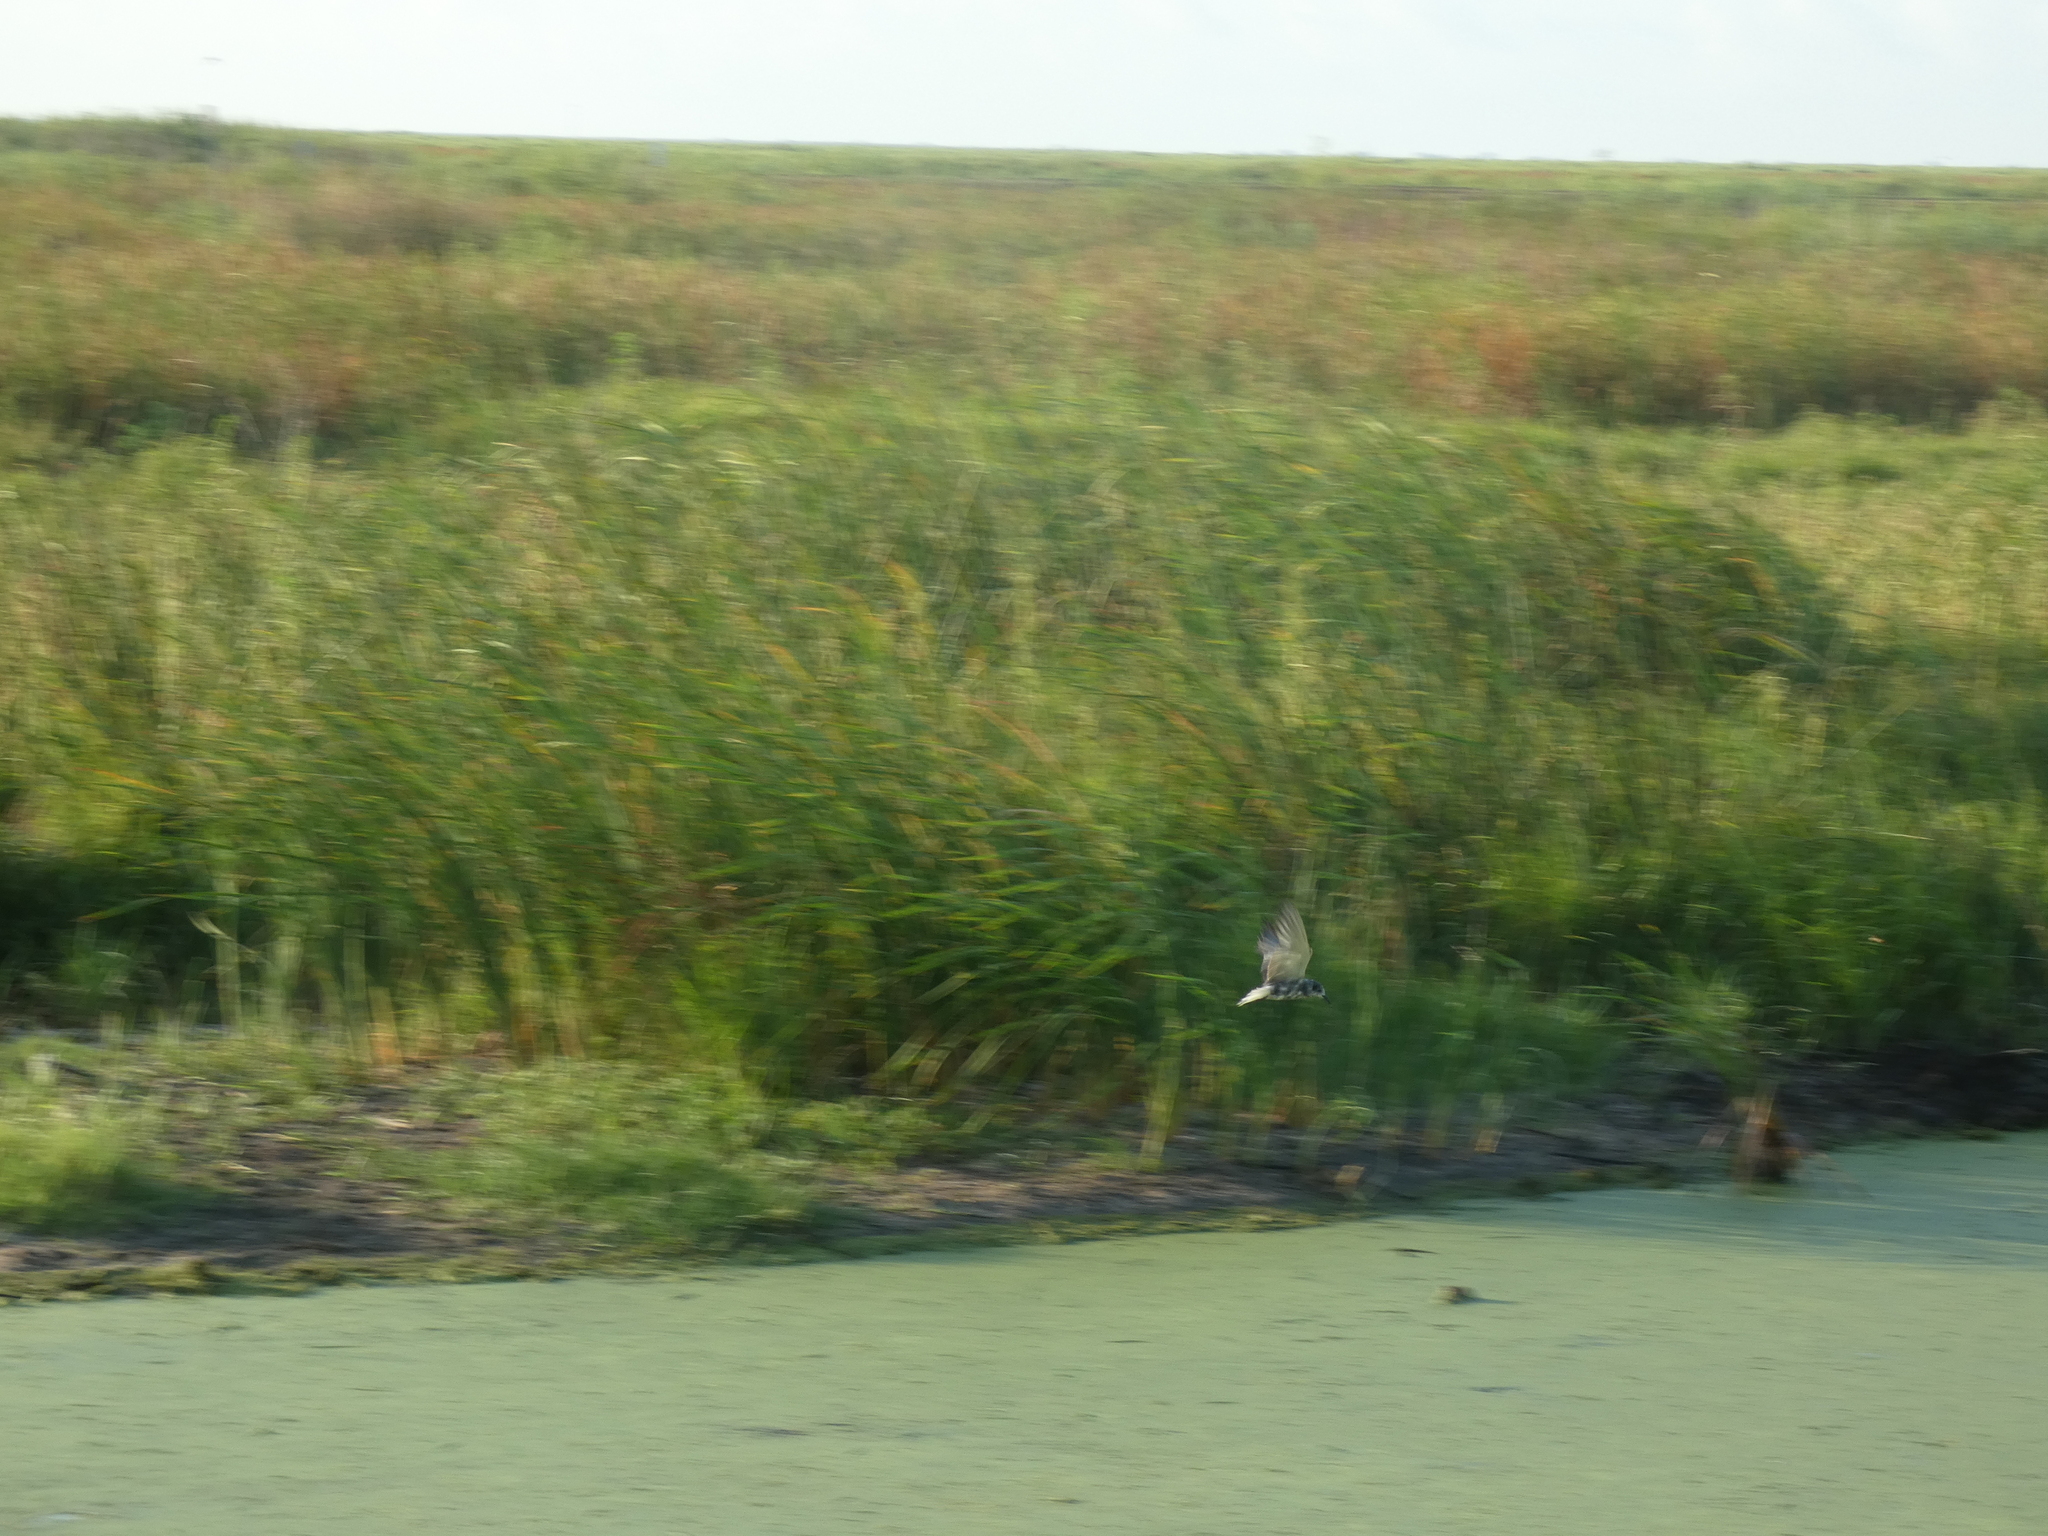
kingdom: Animalia
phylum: Chordata
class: Aves
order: Charadriiformes
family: Laridae
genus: Chlidonias
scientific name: Chlidonias niger
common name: Black tern
